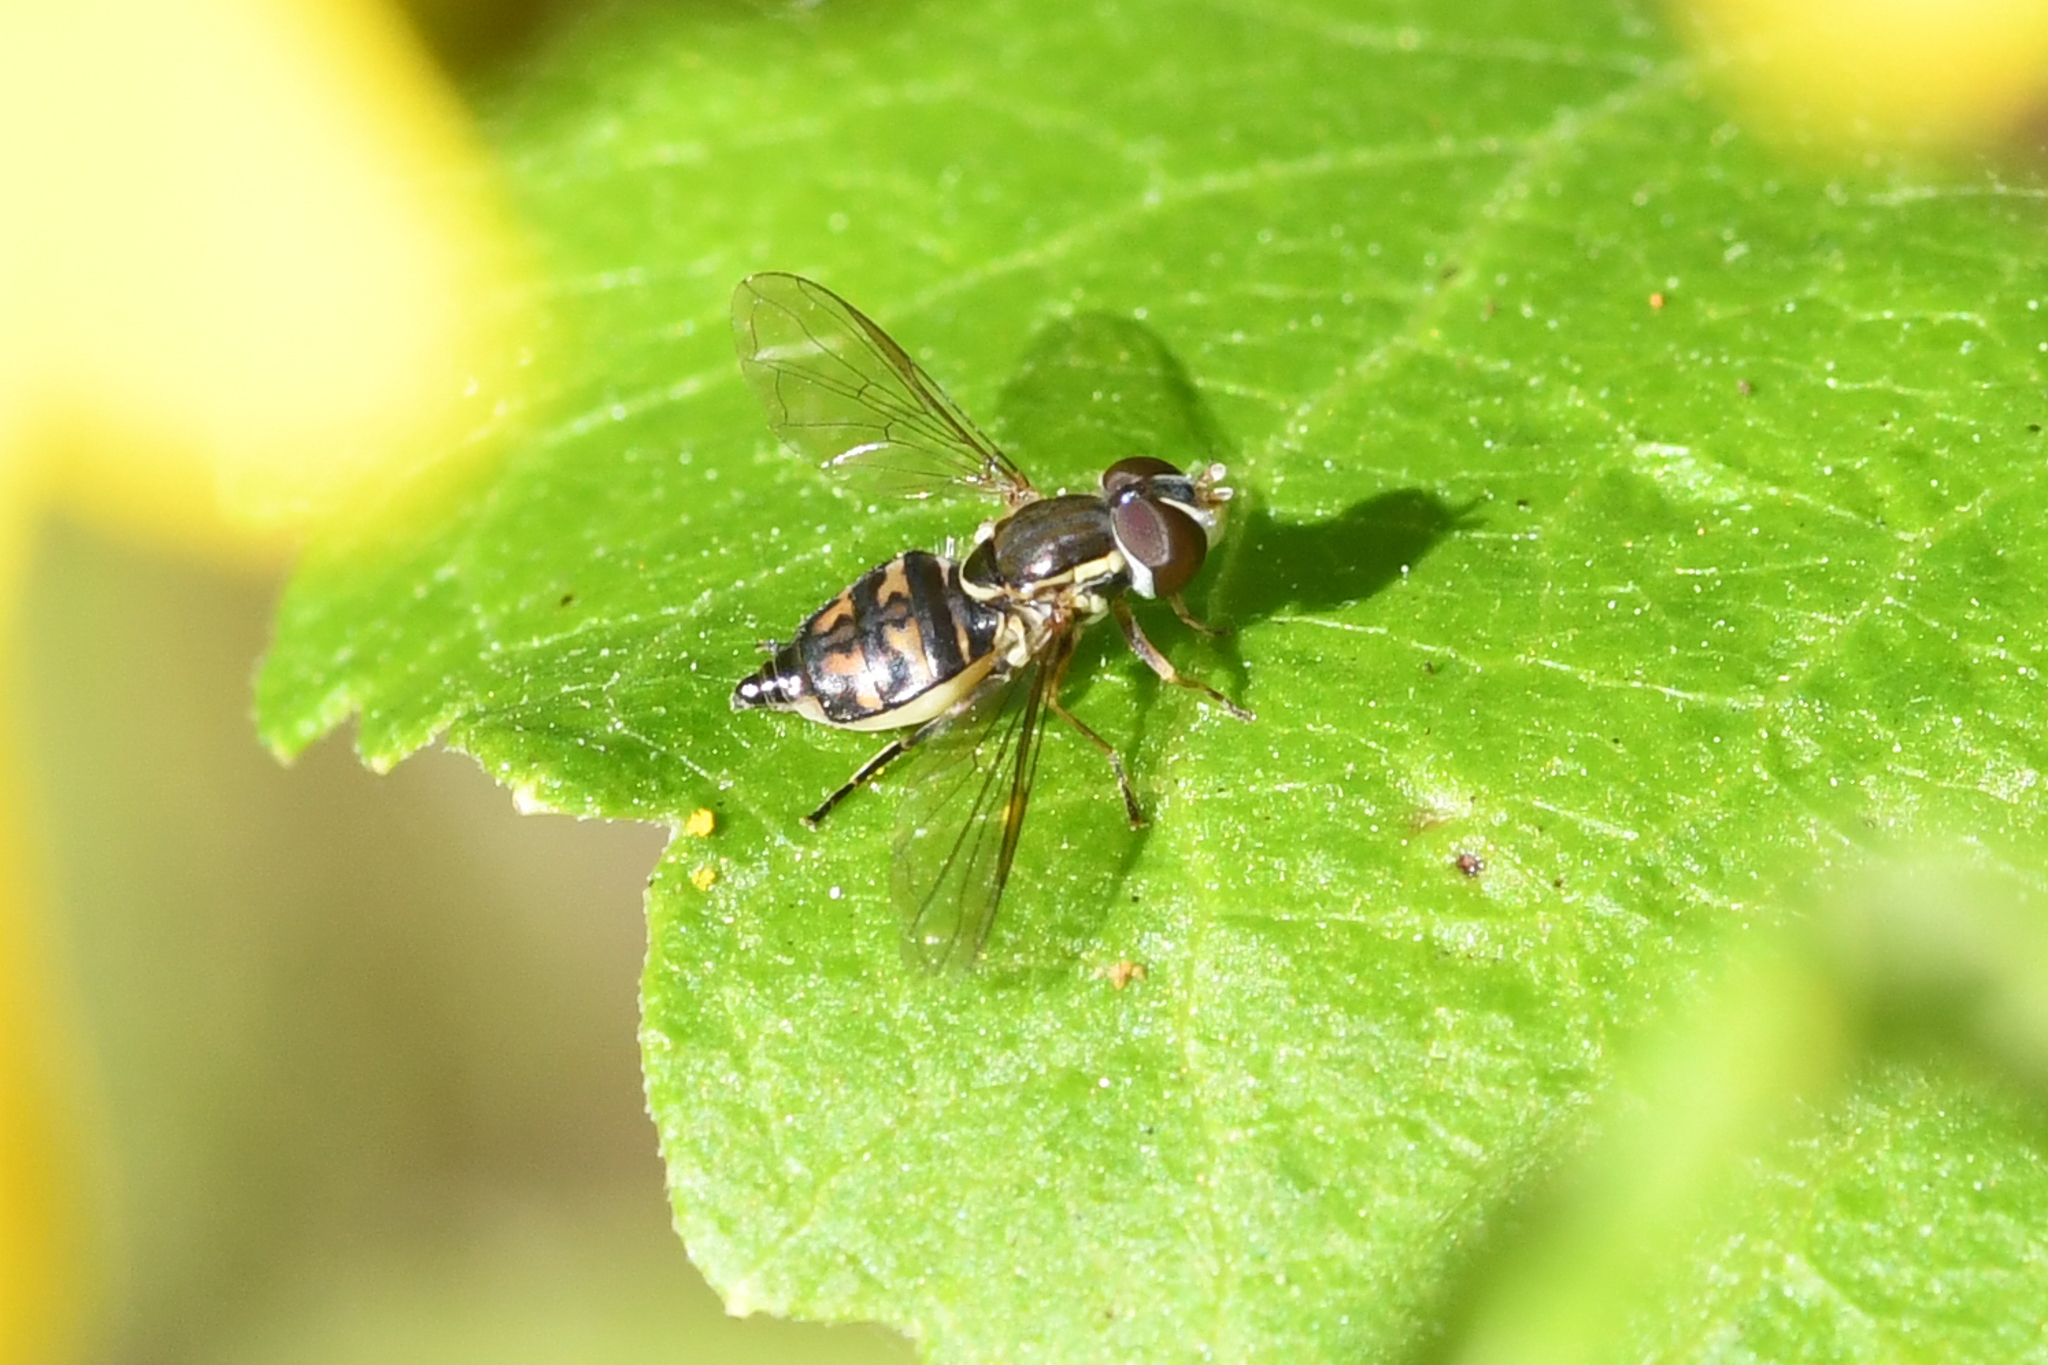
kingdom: Animalia
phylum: Arthropoda
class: Insecta
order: Diptera
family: Syrphidae
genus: Toxomerus
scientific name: Toxomerus occidentalis
